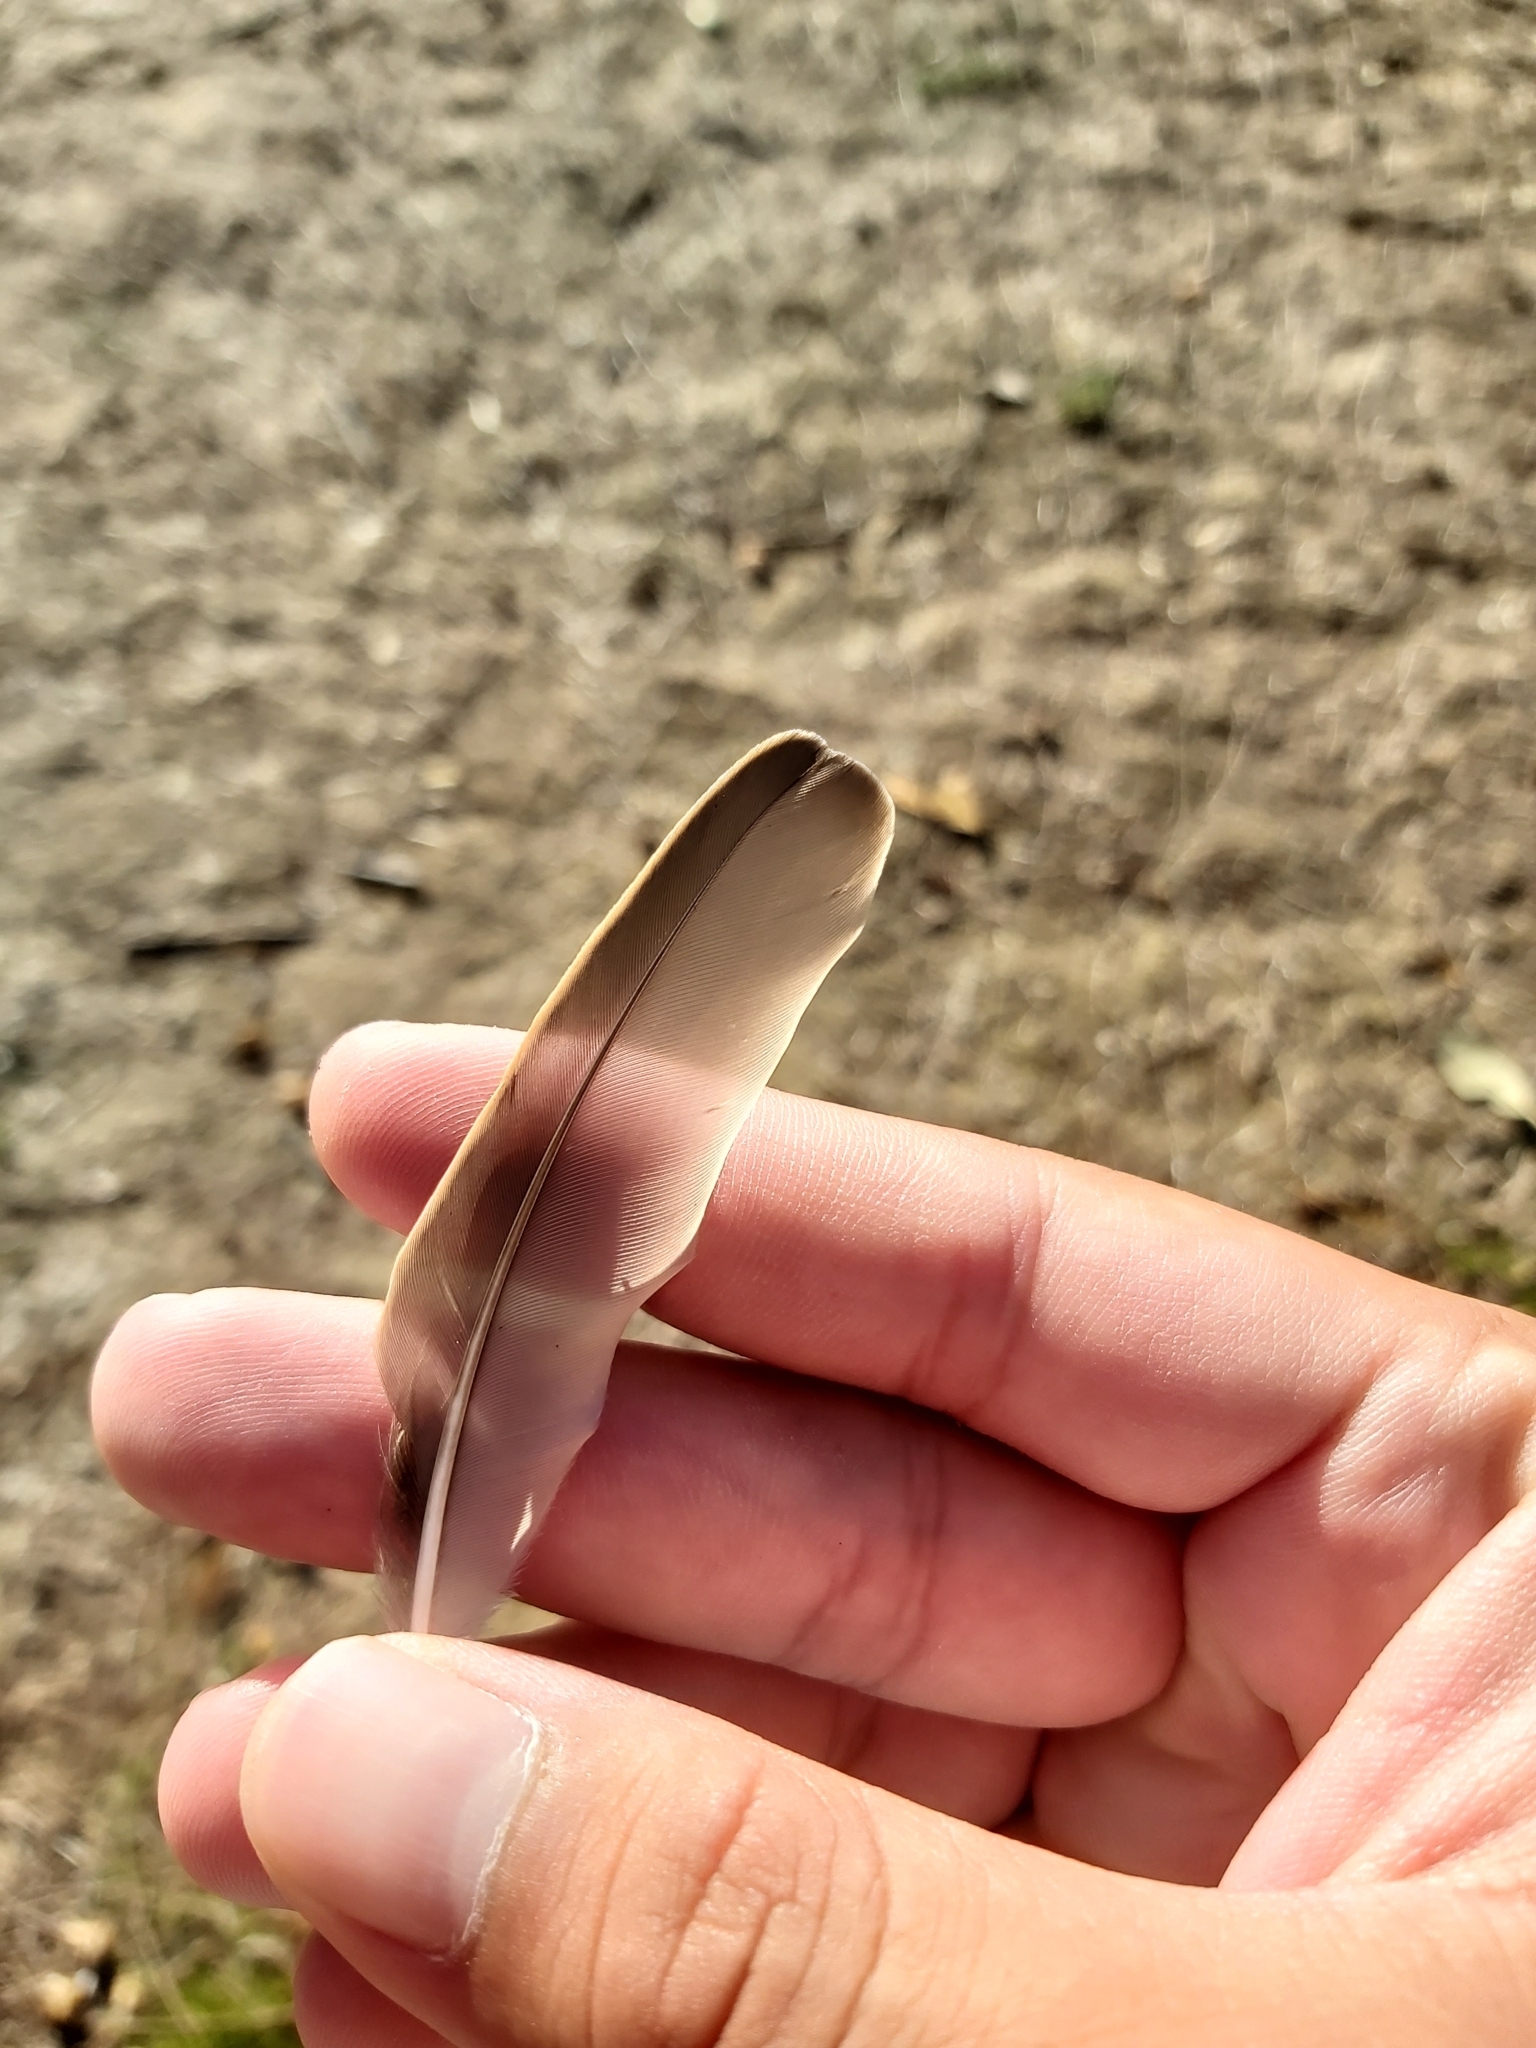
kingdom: Animalia
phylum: Chordata
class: Aves
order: Passeriformes
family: Sturnidae
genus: Sturnus
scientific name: Sturnus vulgaris
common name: Common starling
